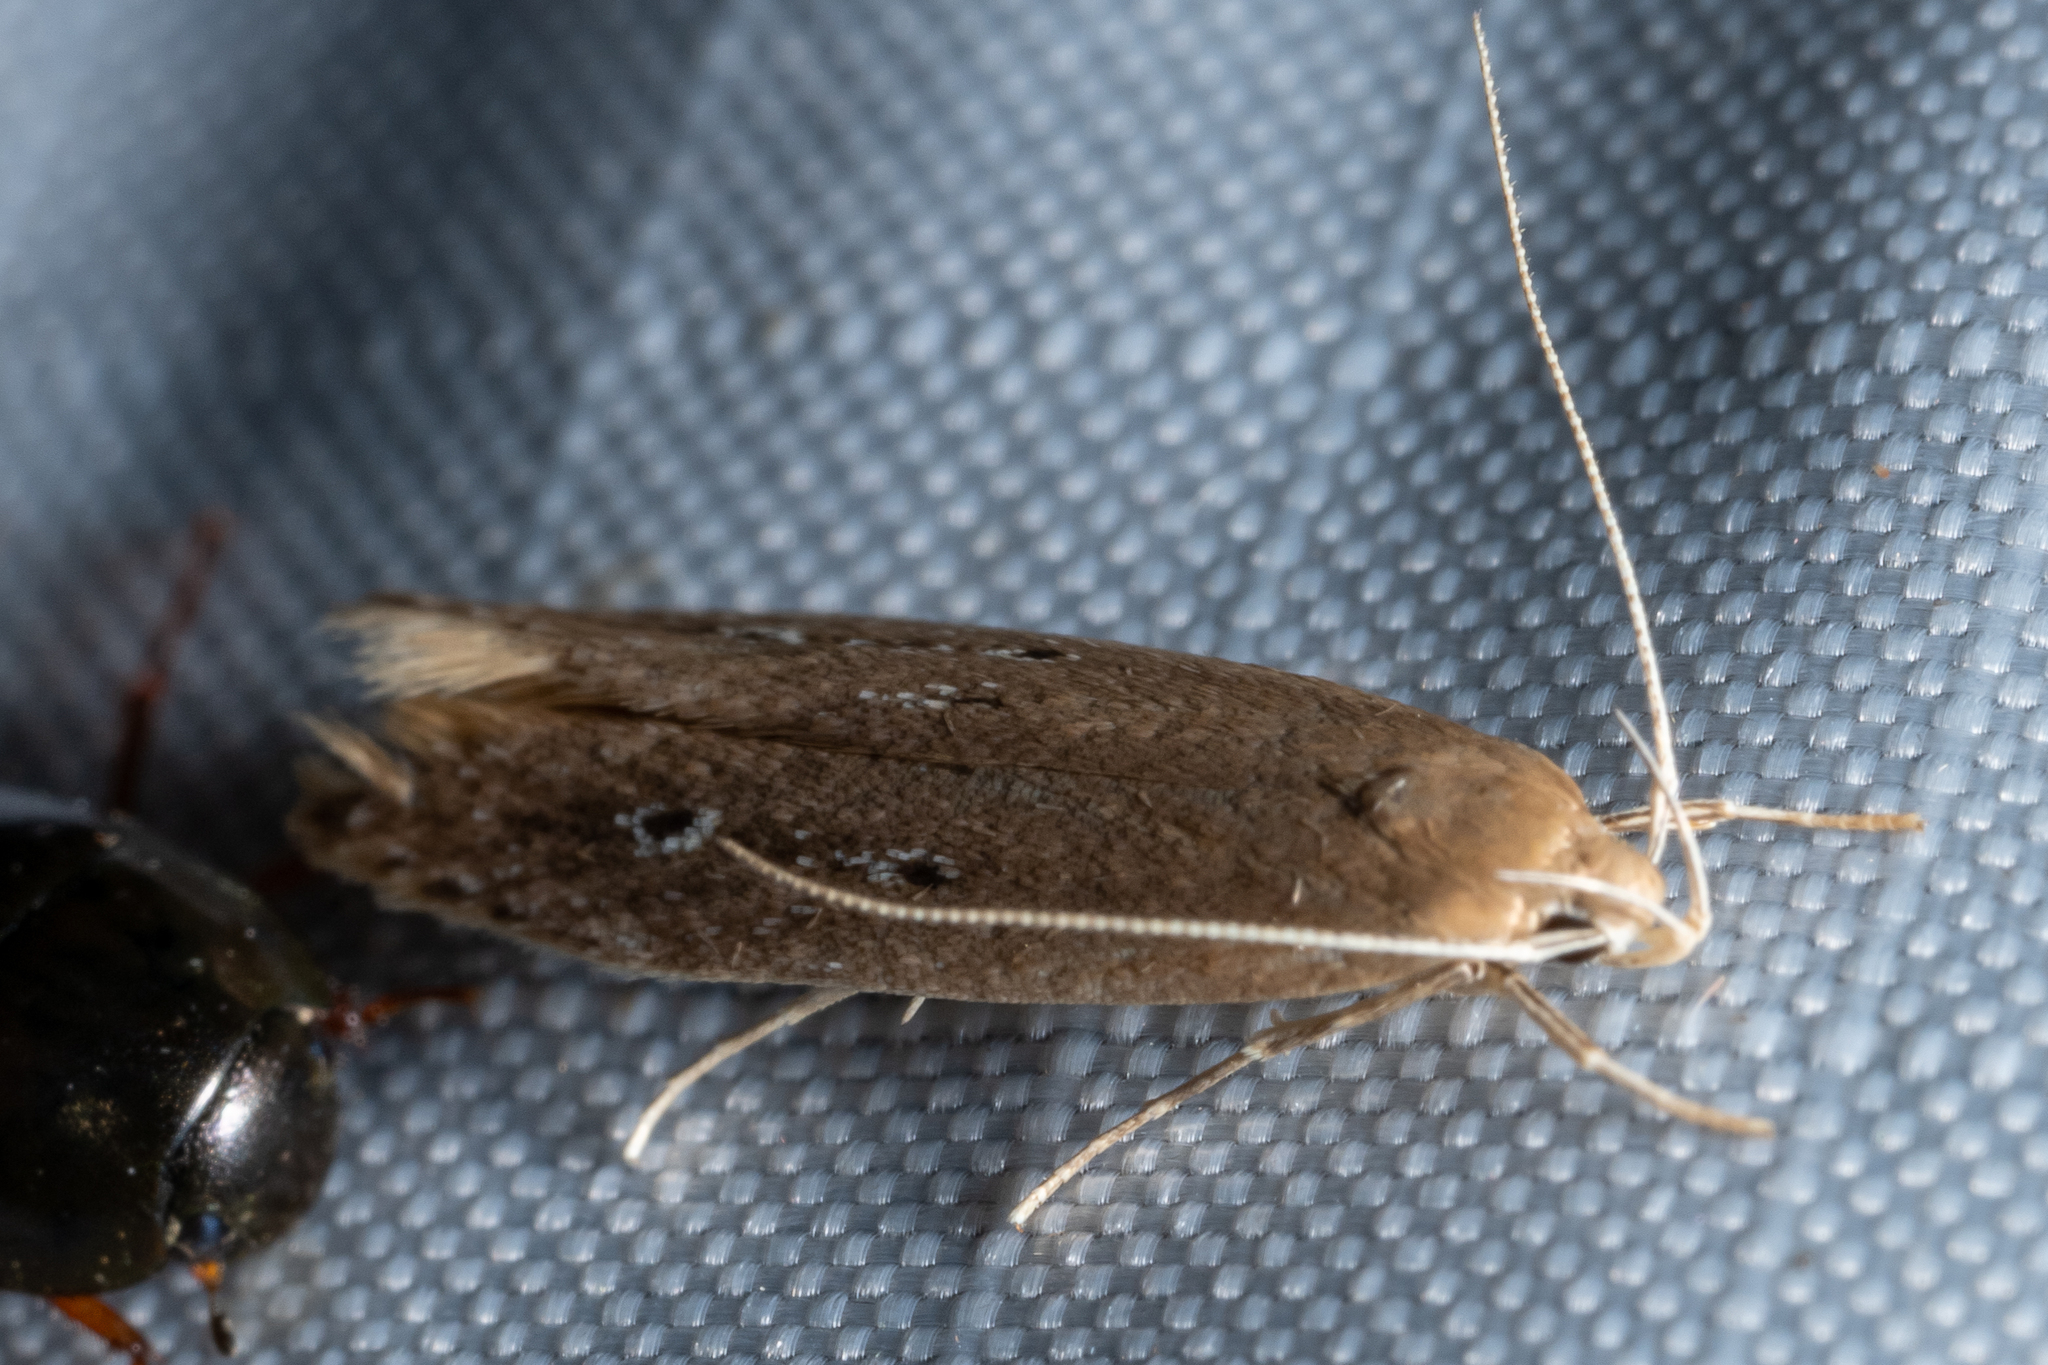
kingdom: Animalia
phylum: Arthropoda
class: Insecta
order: Lepidoptera
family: Cosmopterigidae
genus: Limnaecia
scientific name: Limnaecia phragmitella
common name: Bulrush cosmet
